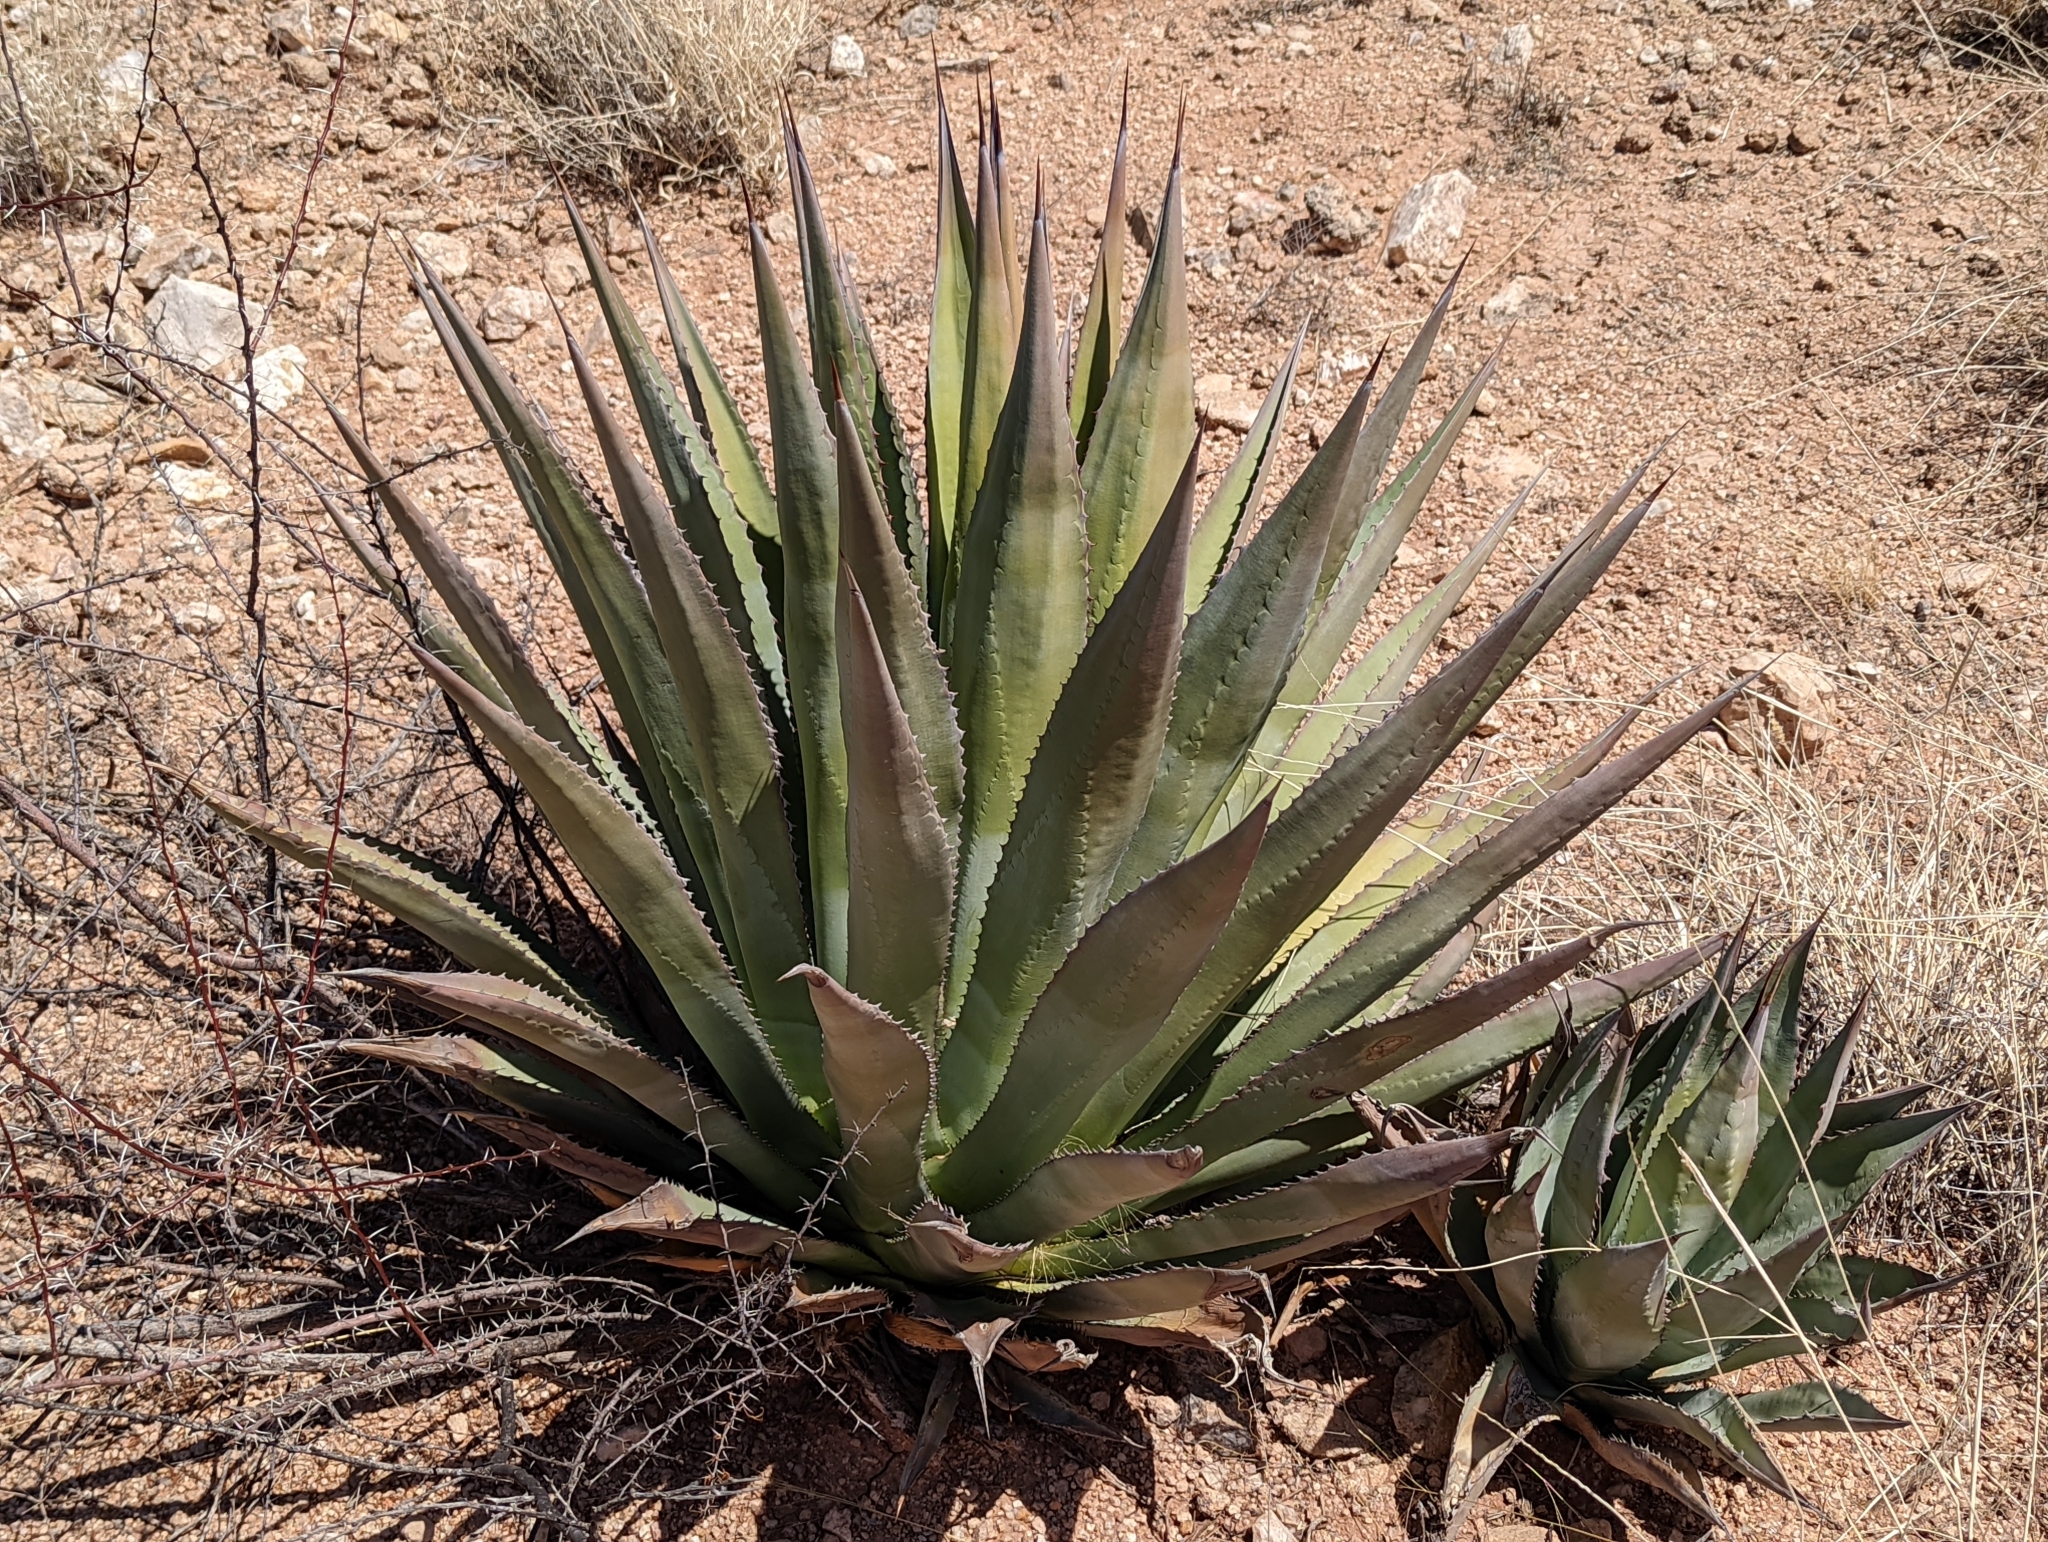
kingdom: Plantae
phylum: Tracheophyta
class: Liliopsida
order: Asparagales
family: Asparagaceae
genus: Agave
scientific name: Agave palmeri
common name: Palmer agave
